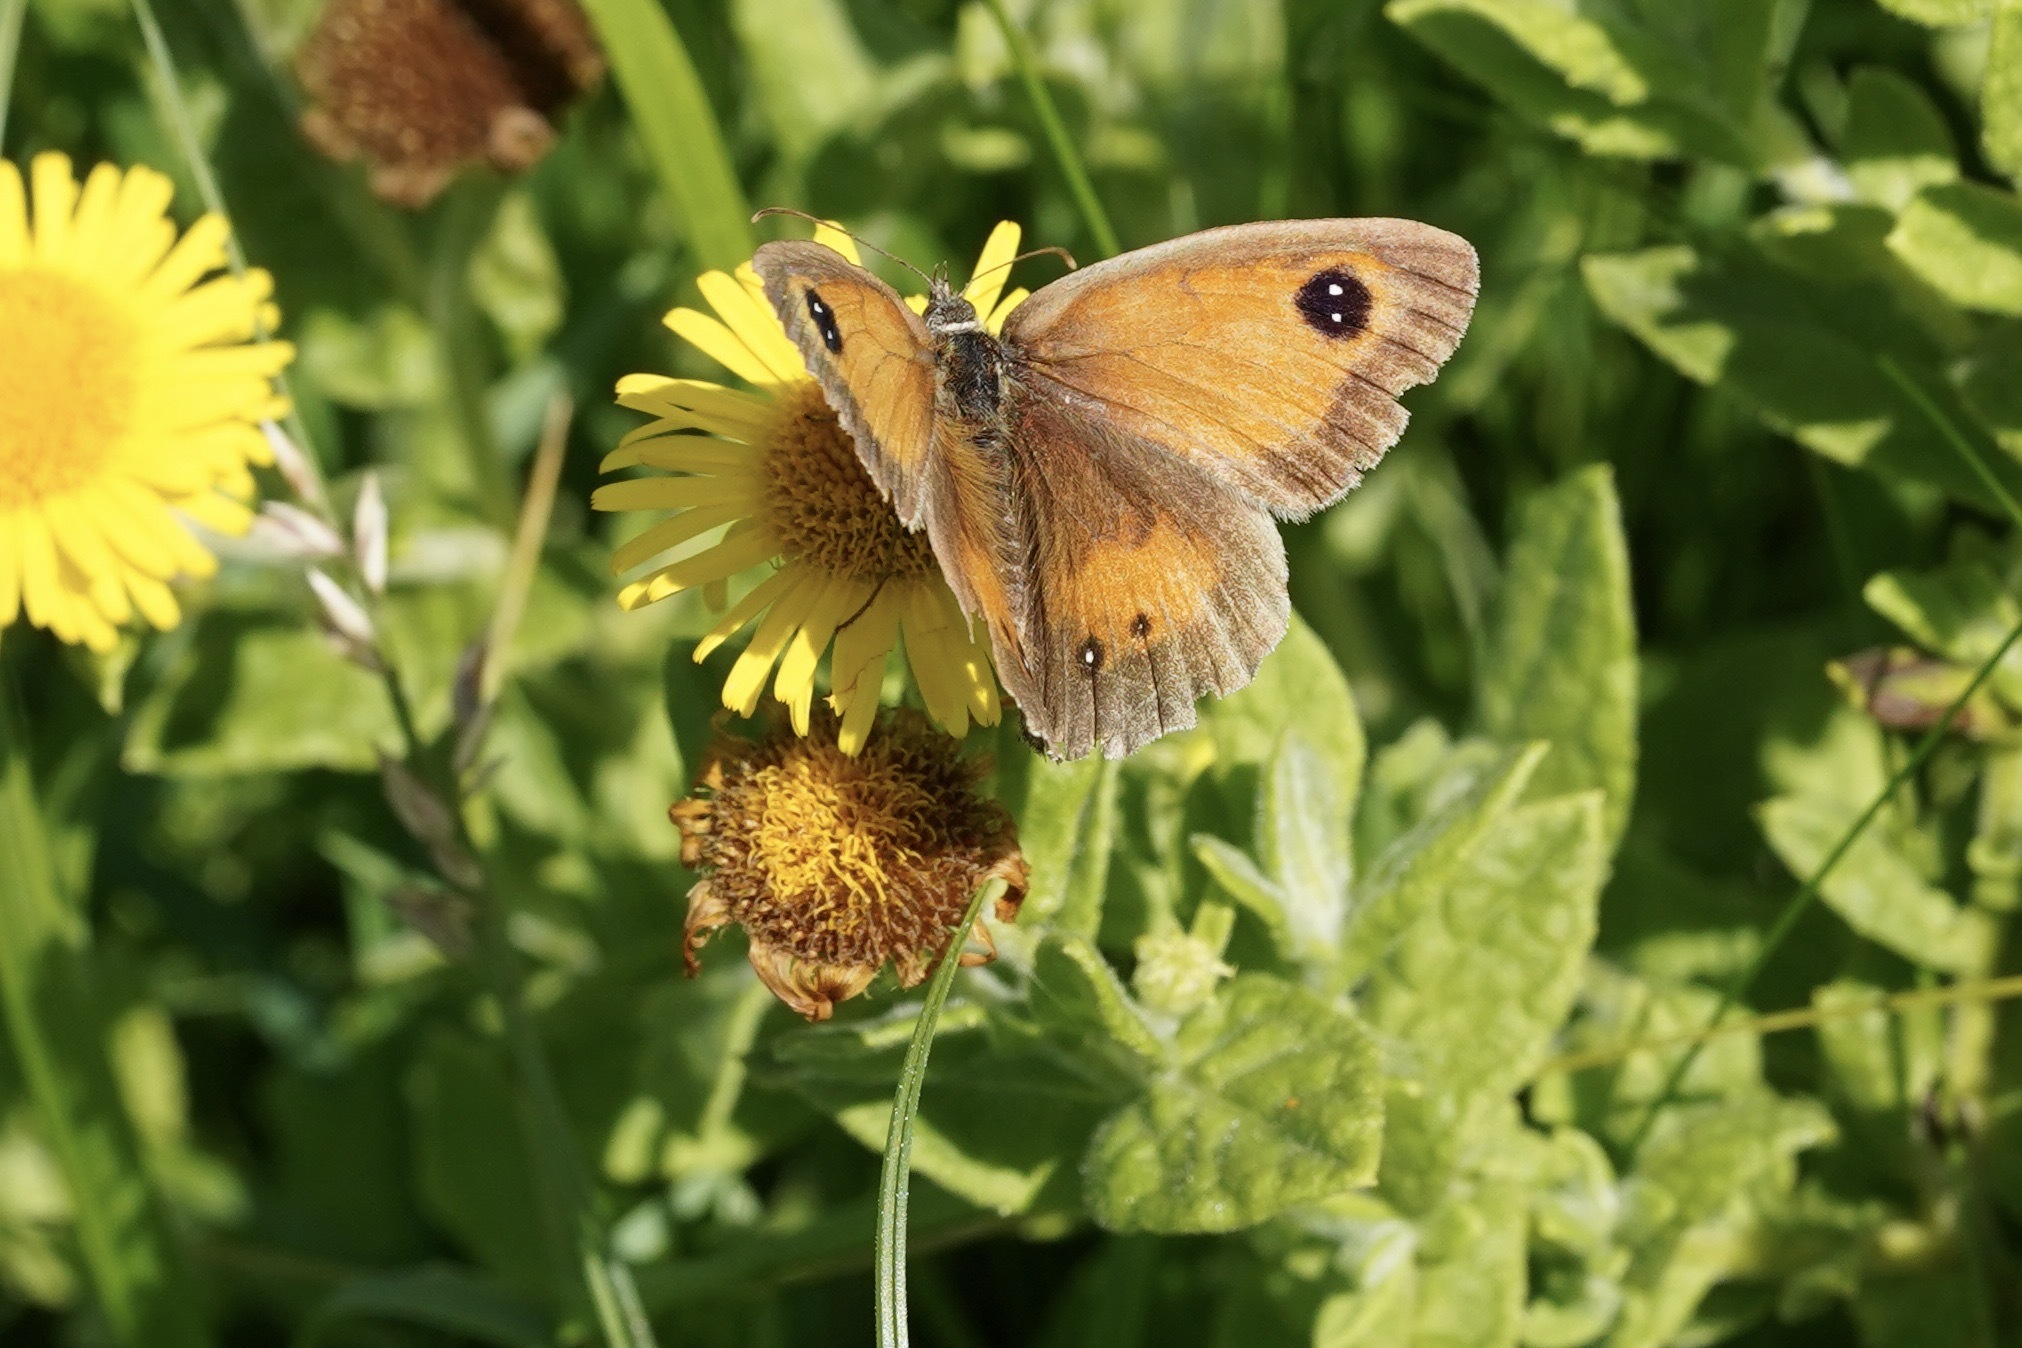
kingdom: Animalia
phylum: Arthropoda
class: Insecta
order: Lepidoptera
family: Nymphalidae
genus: Pyronia
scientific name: Pyronia tithonus
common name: Gatekeeper
